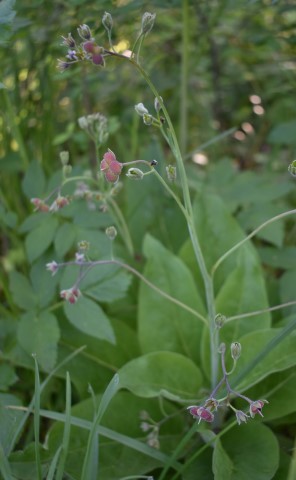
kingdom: Plantae
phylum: Tracheophyta
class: Magnoliopsida
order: Boraginales
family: Boraginaceae
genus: Adelinia
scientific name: Adelinia grande
